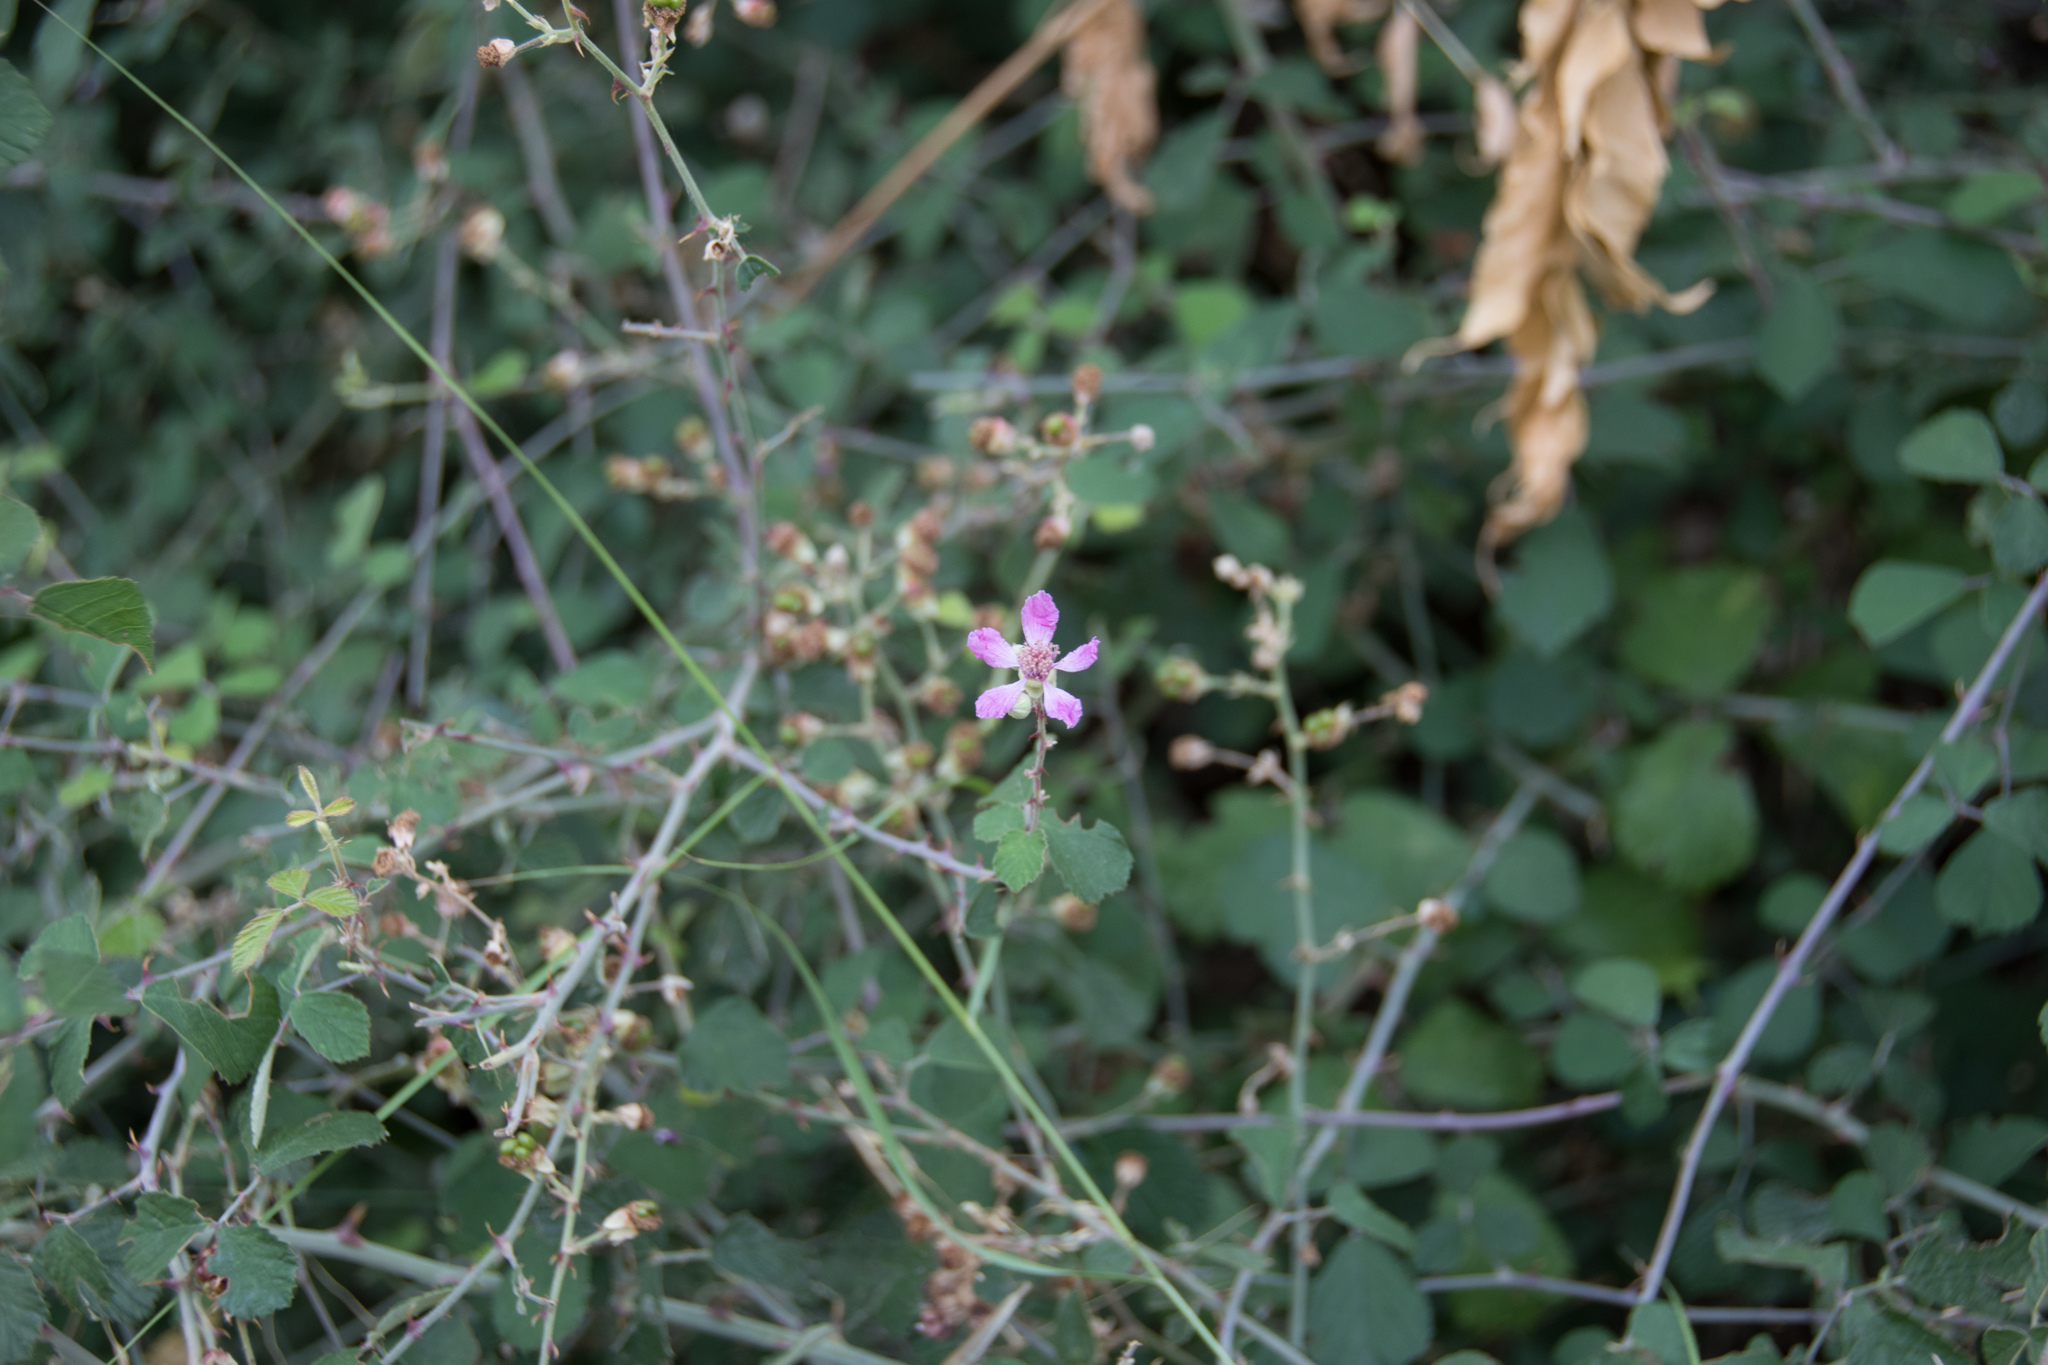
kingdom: Plantae
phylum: Tracheophyta
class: Magnoliopsida
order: Rosales
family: Rosaceae
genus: Rubus
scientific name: Rubus sanctus
